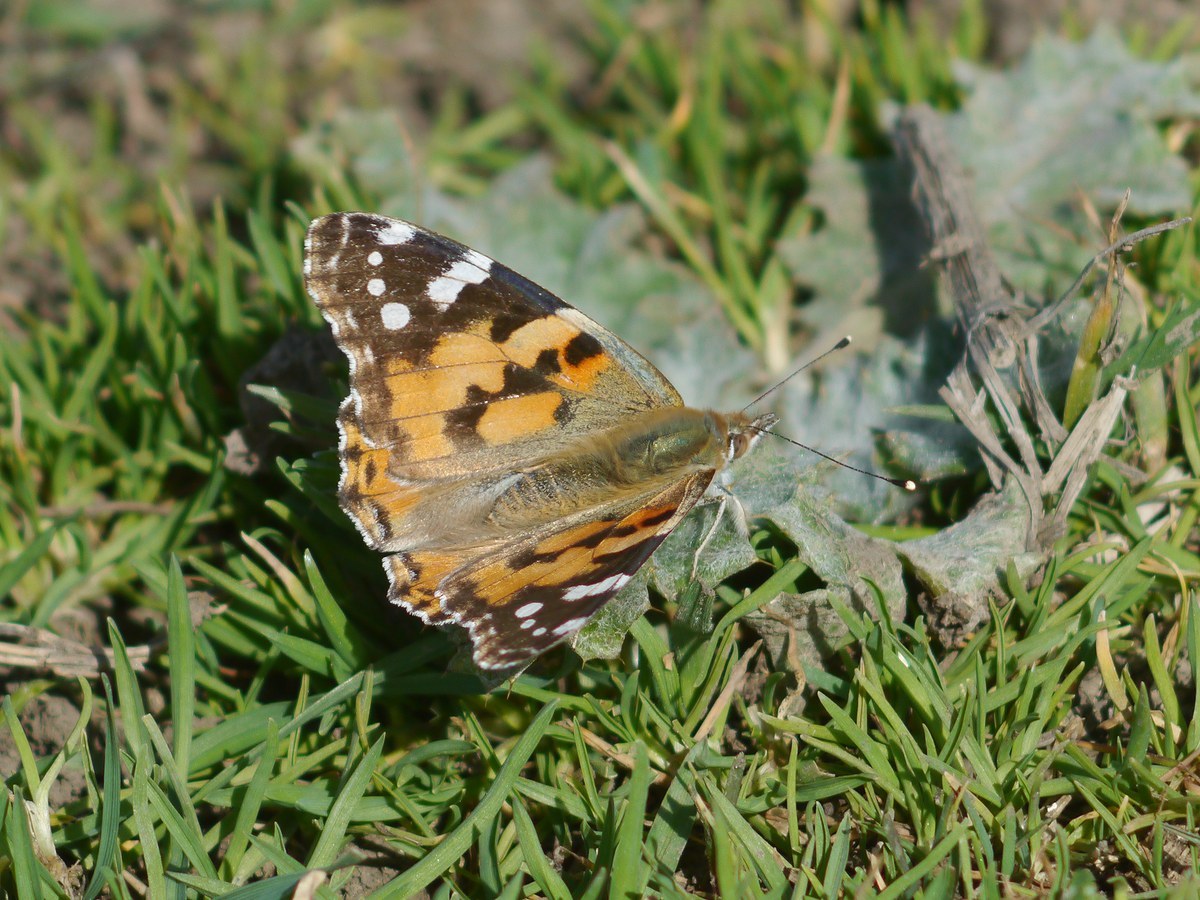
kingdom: Animalia
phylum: Arthropoda
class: Insecta
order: Lepidoptera
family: Nymphalidae
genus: Vanessa
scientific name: Vanessa cardui
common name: Painted lady
